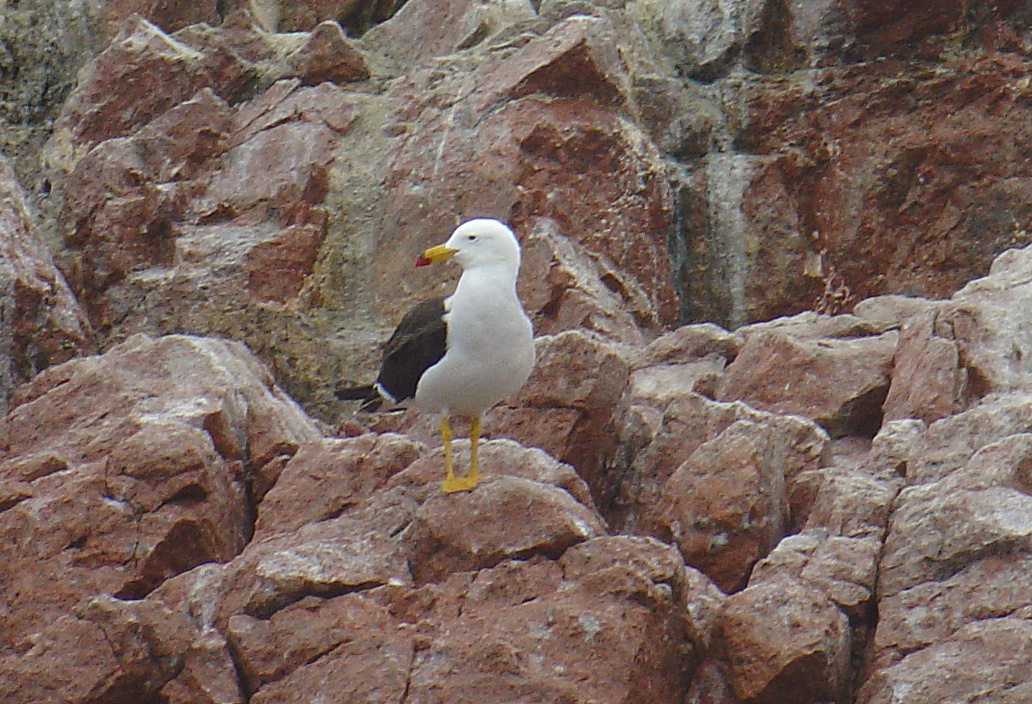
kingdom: Animalia
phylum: Chordata
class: Aves
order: Charadriiformes
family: Laridae
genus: Larus
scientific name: Larus belcheri
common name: Belcher's gull
